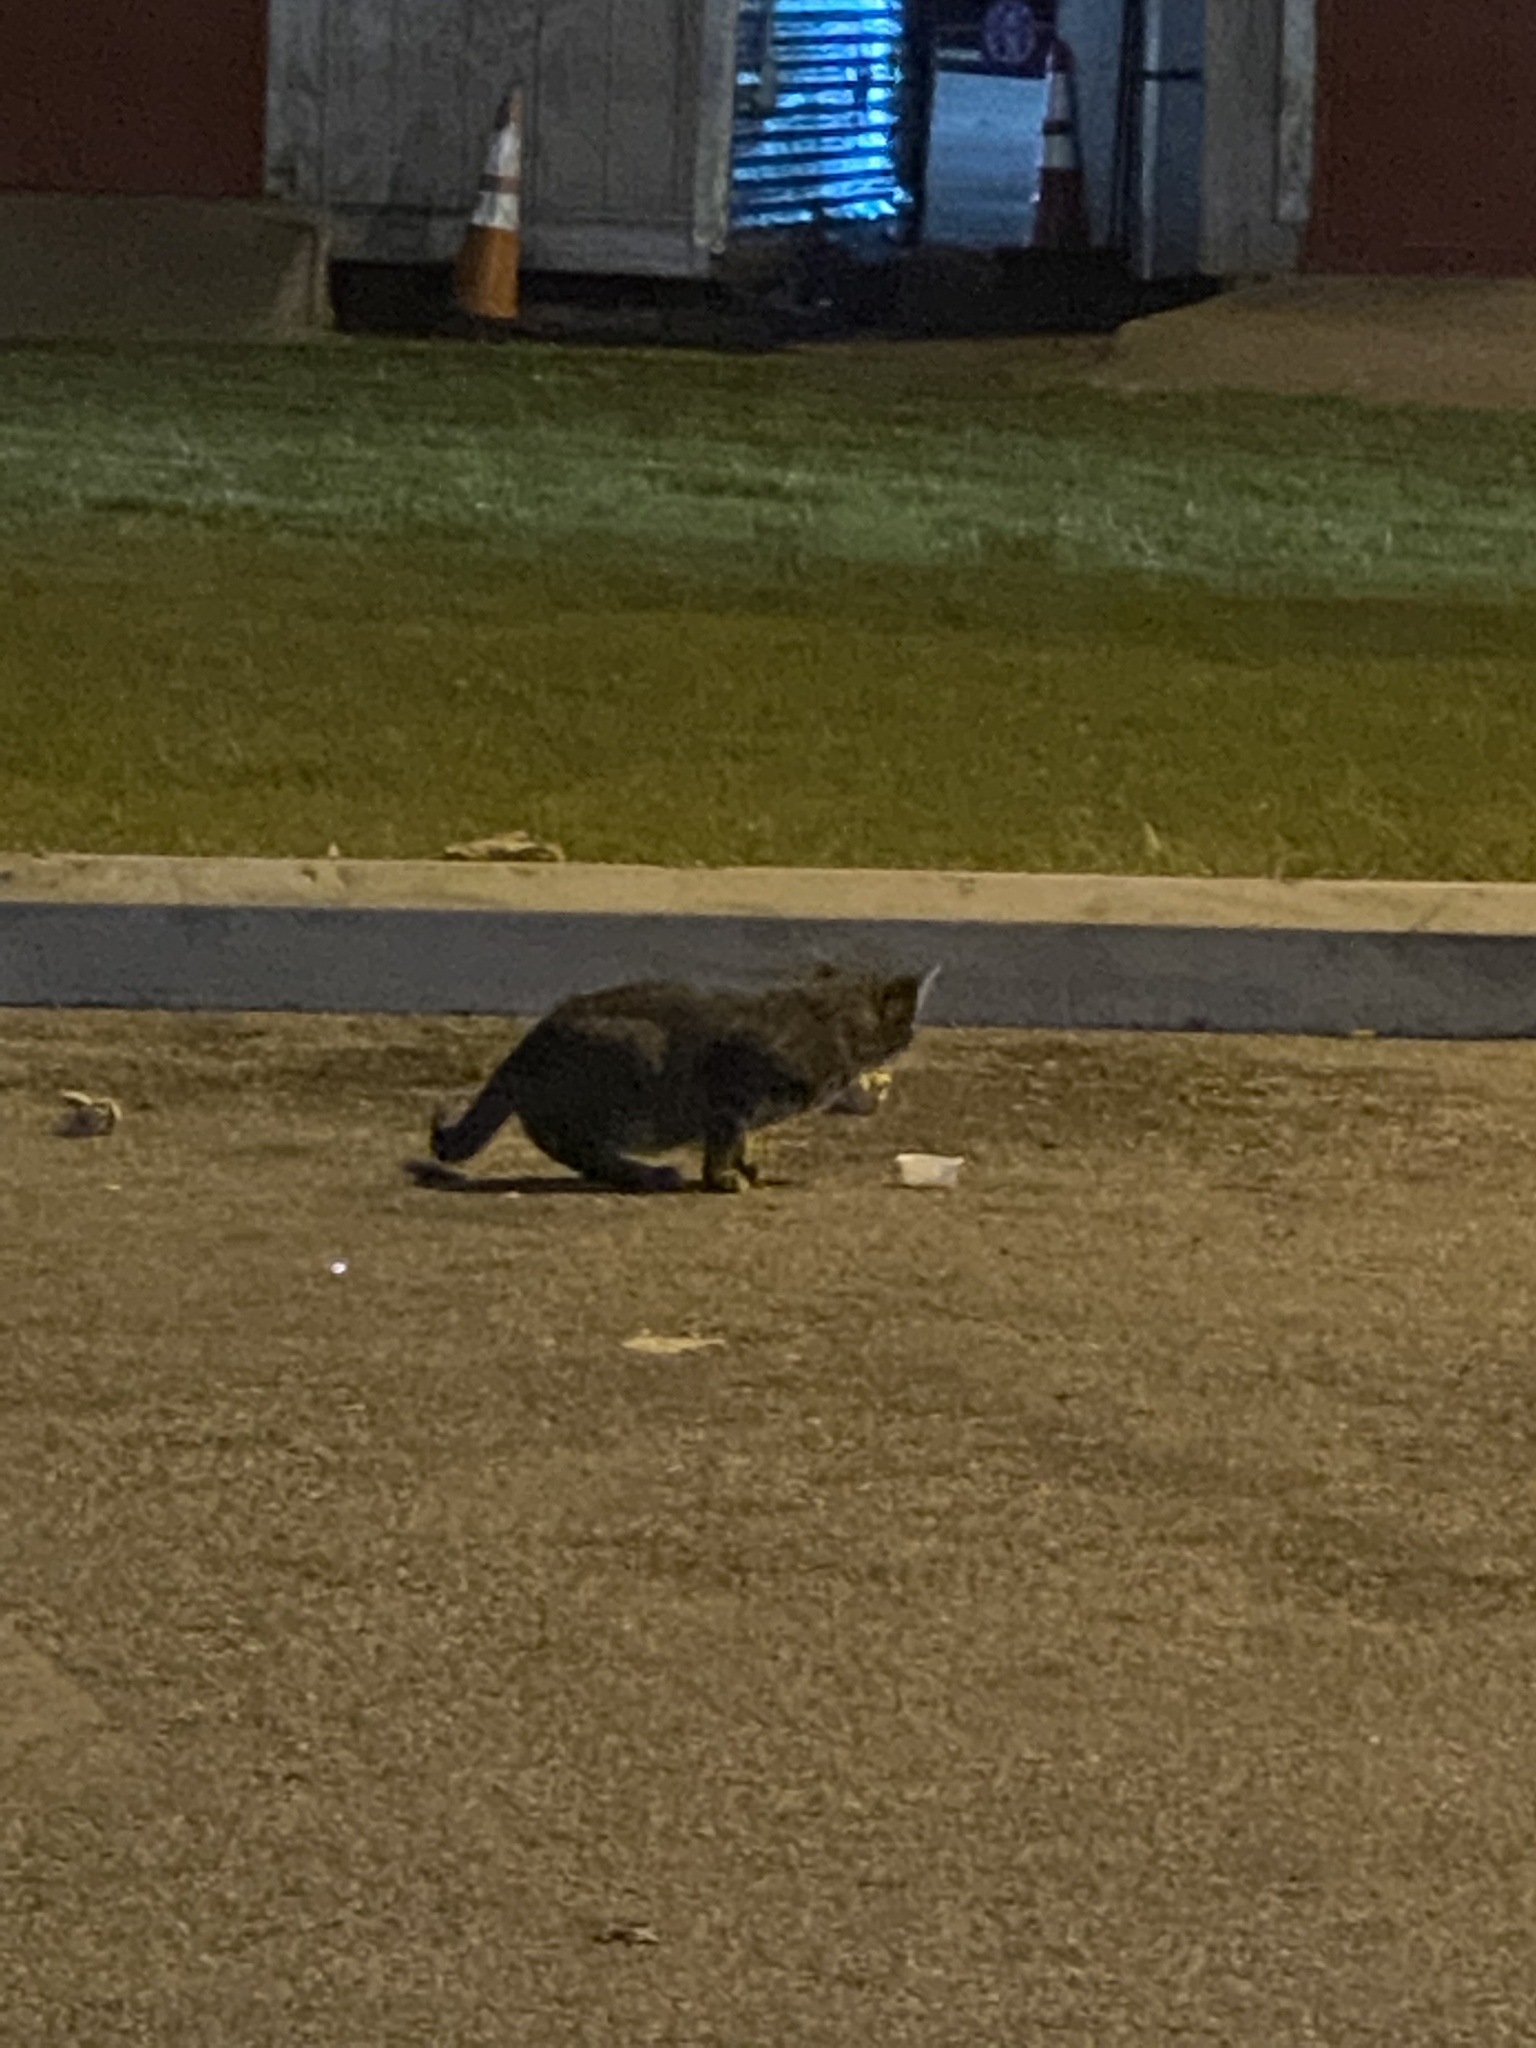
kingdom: Animalia
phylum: Chordata
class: Mammalia
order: Carnivora
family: Felidae
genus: Felis
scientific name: Felis catus
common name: Domestic cat
